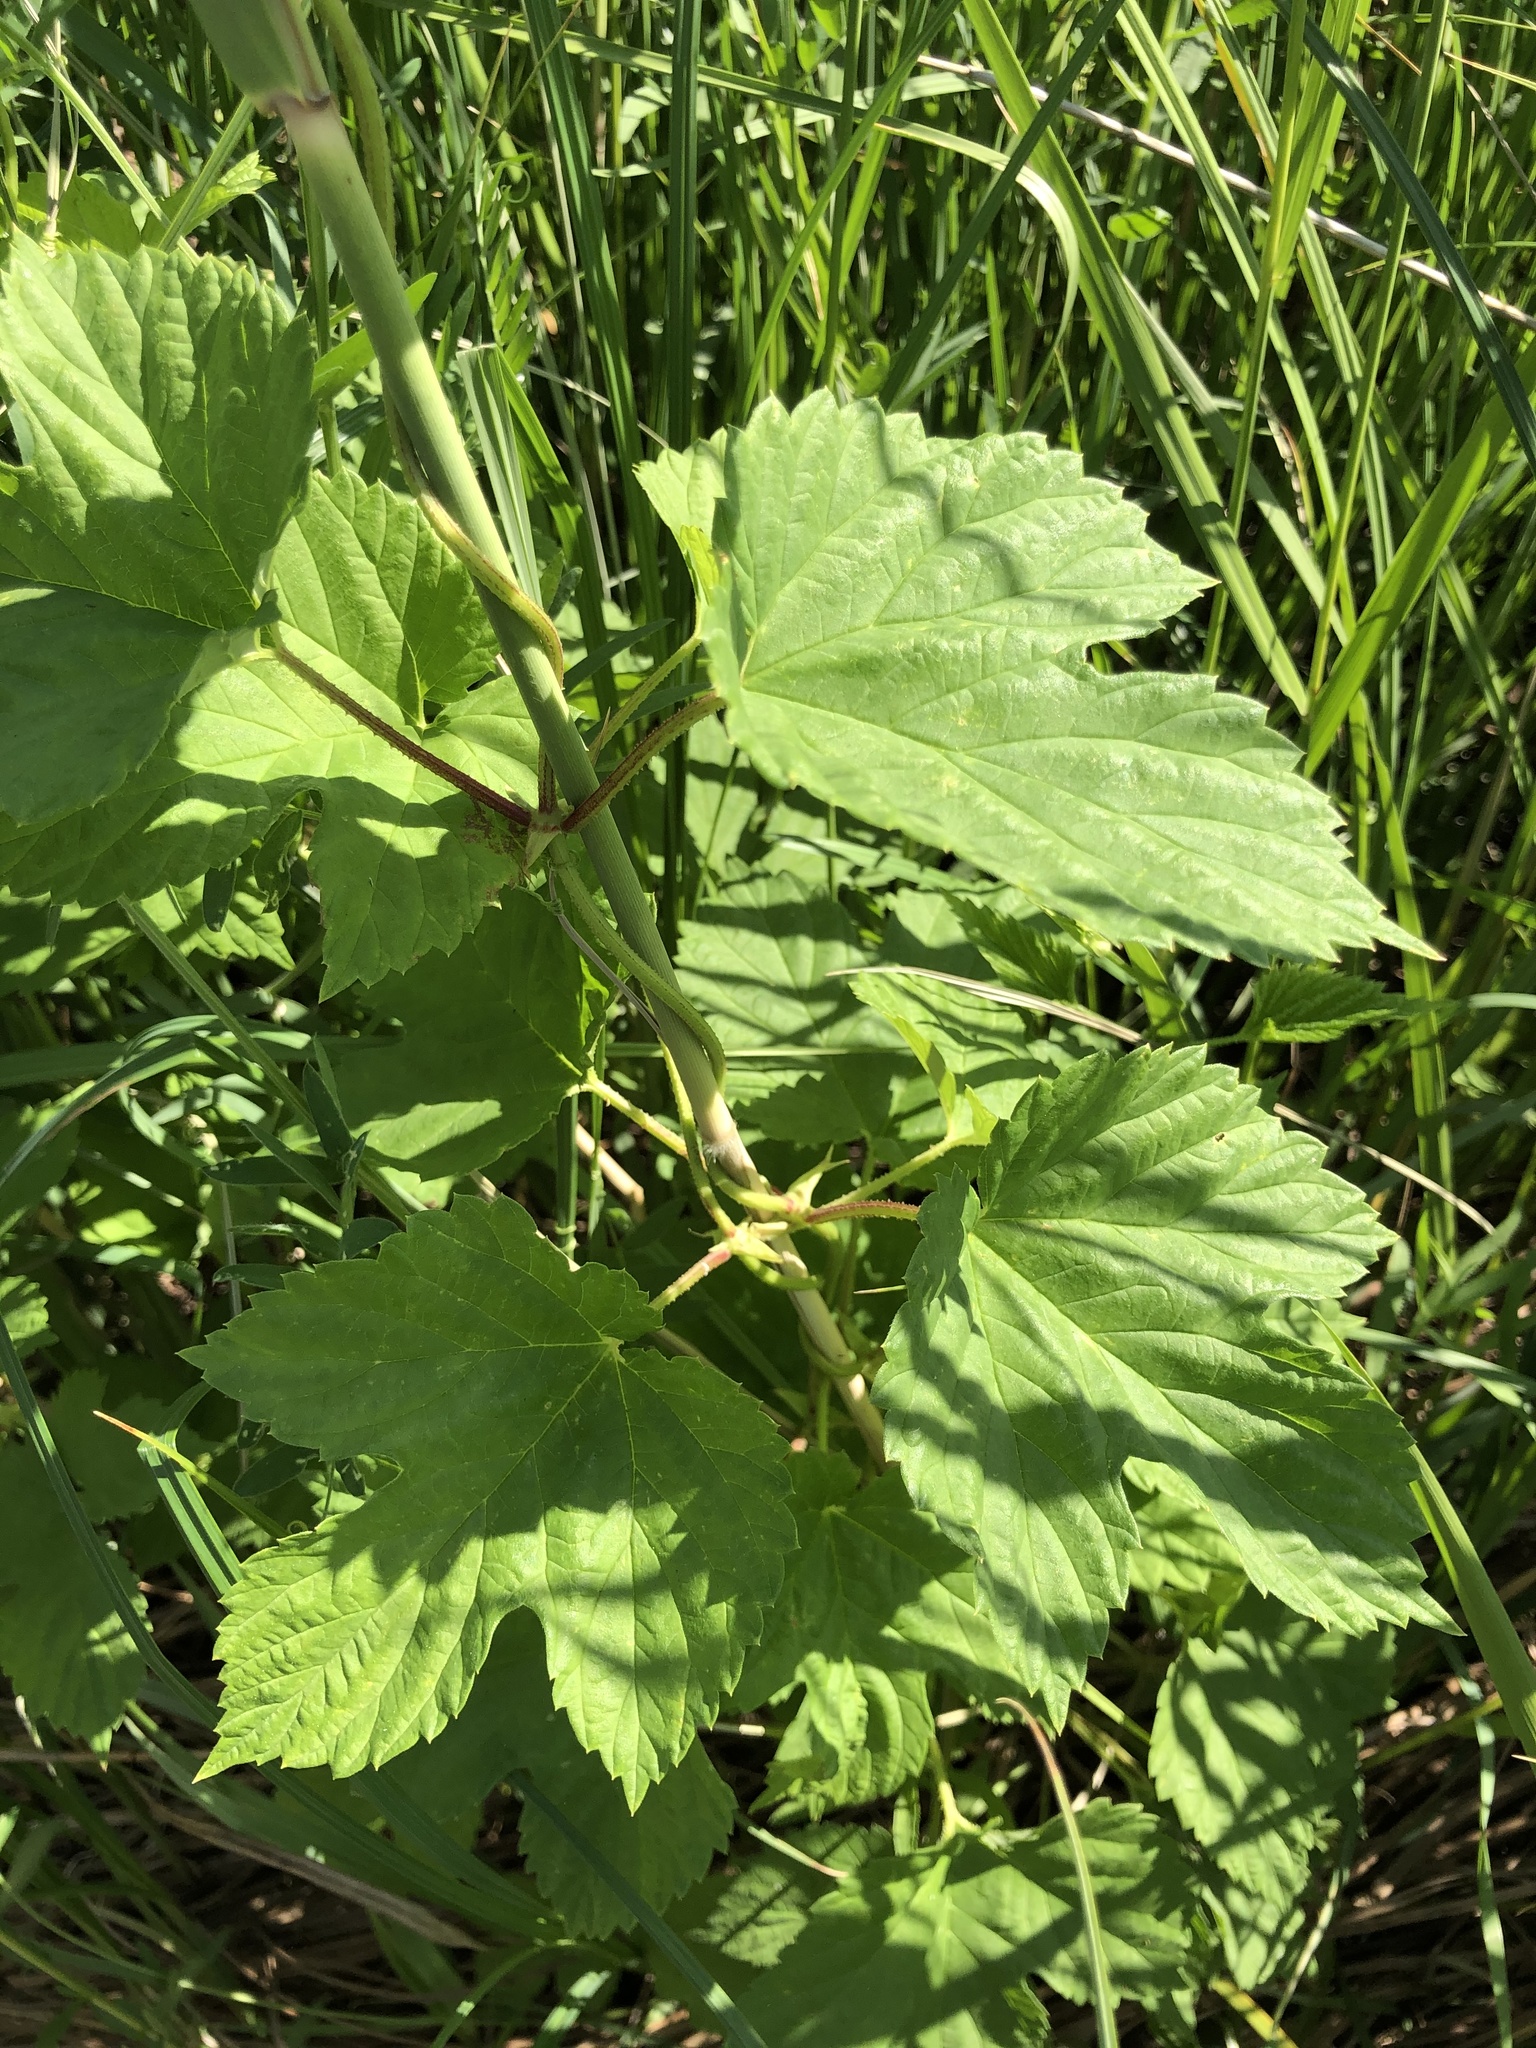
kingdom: Plantae
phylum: Tracheophyta
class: Magnoliopsida
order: Rosales
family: Cannabaceae
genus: Humulus
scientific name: Humulus lupulus
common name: Hop
